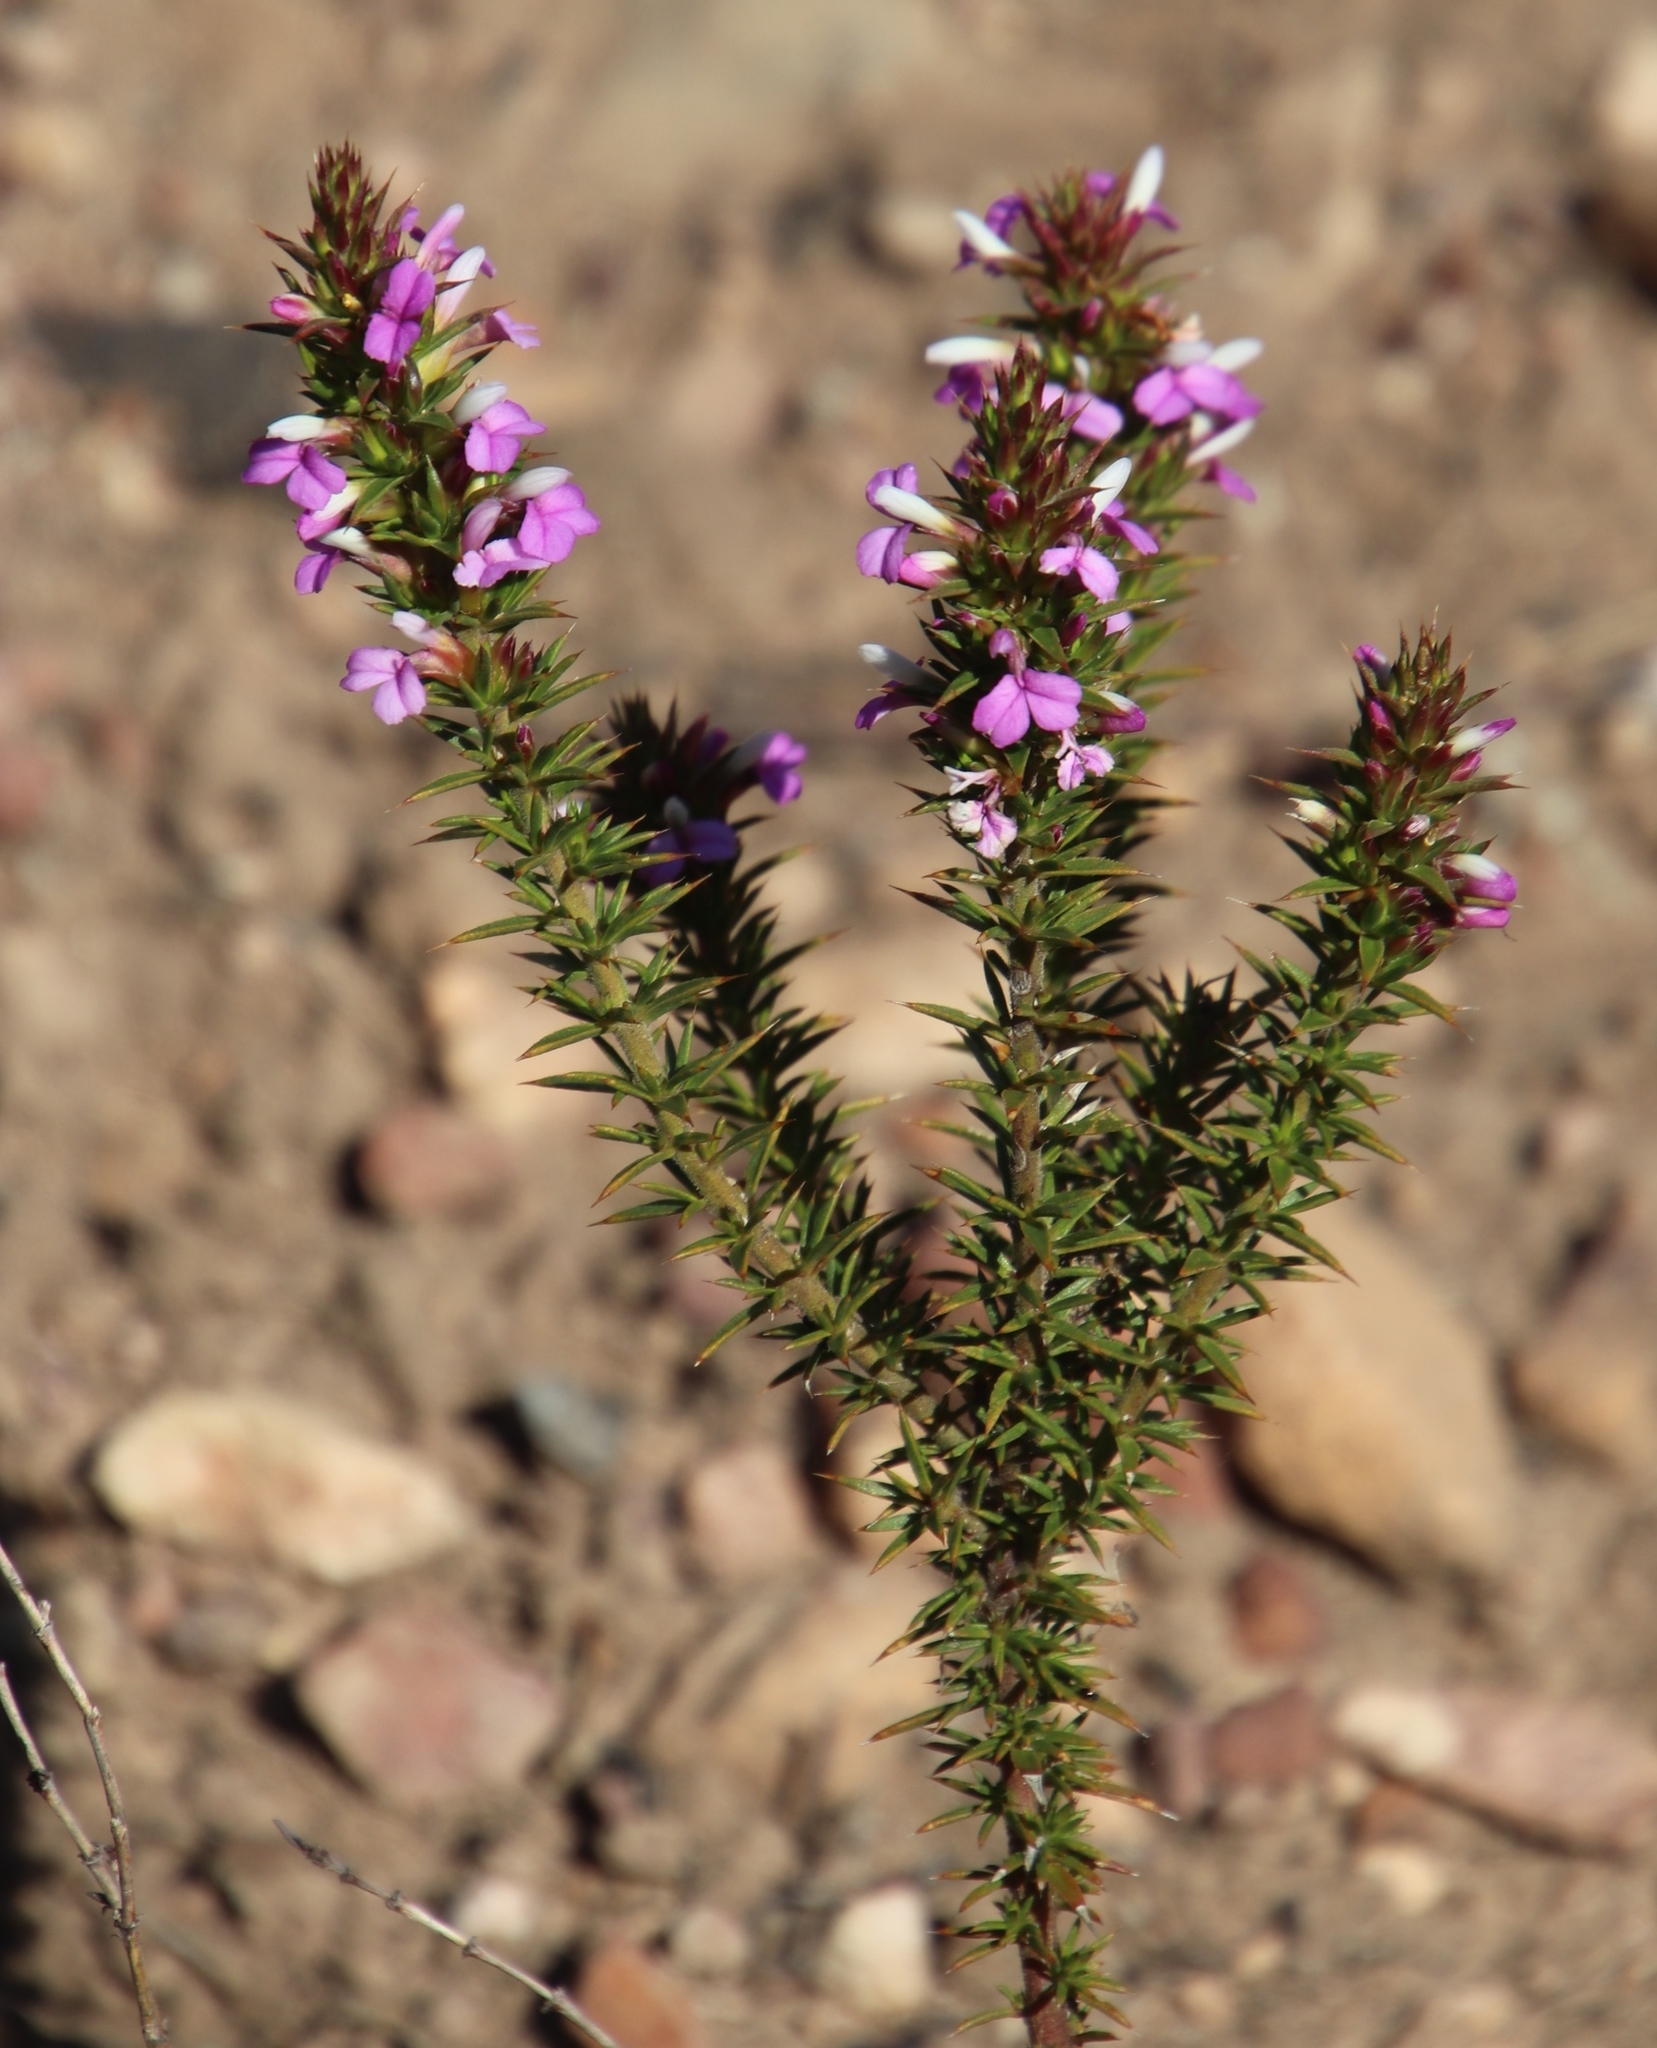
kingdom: Plantae
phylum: Tracheophyta
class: Magnoliopsida
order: Fabales
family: Polygalaceae
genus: Muraltia
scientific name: Muraltia heisteria
